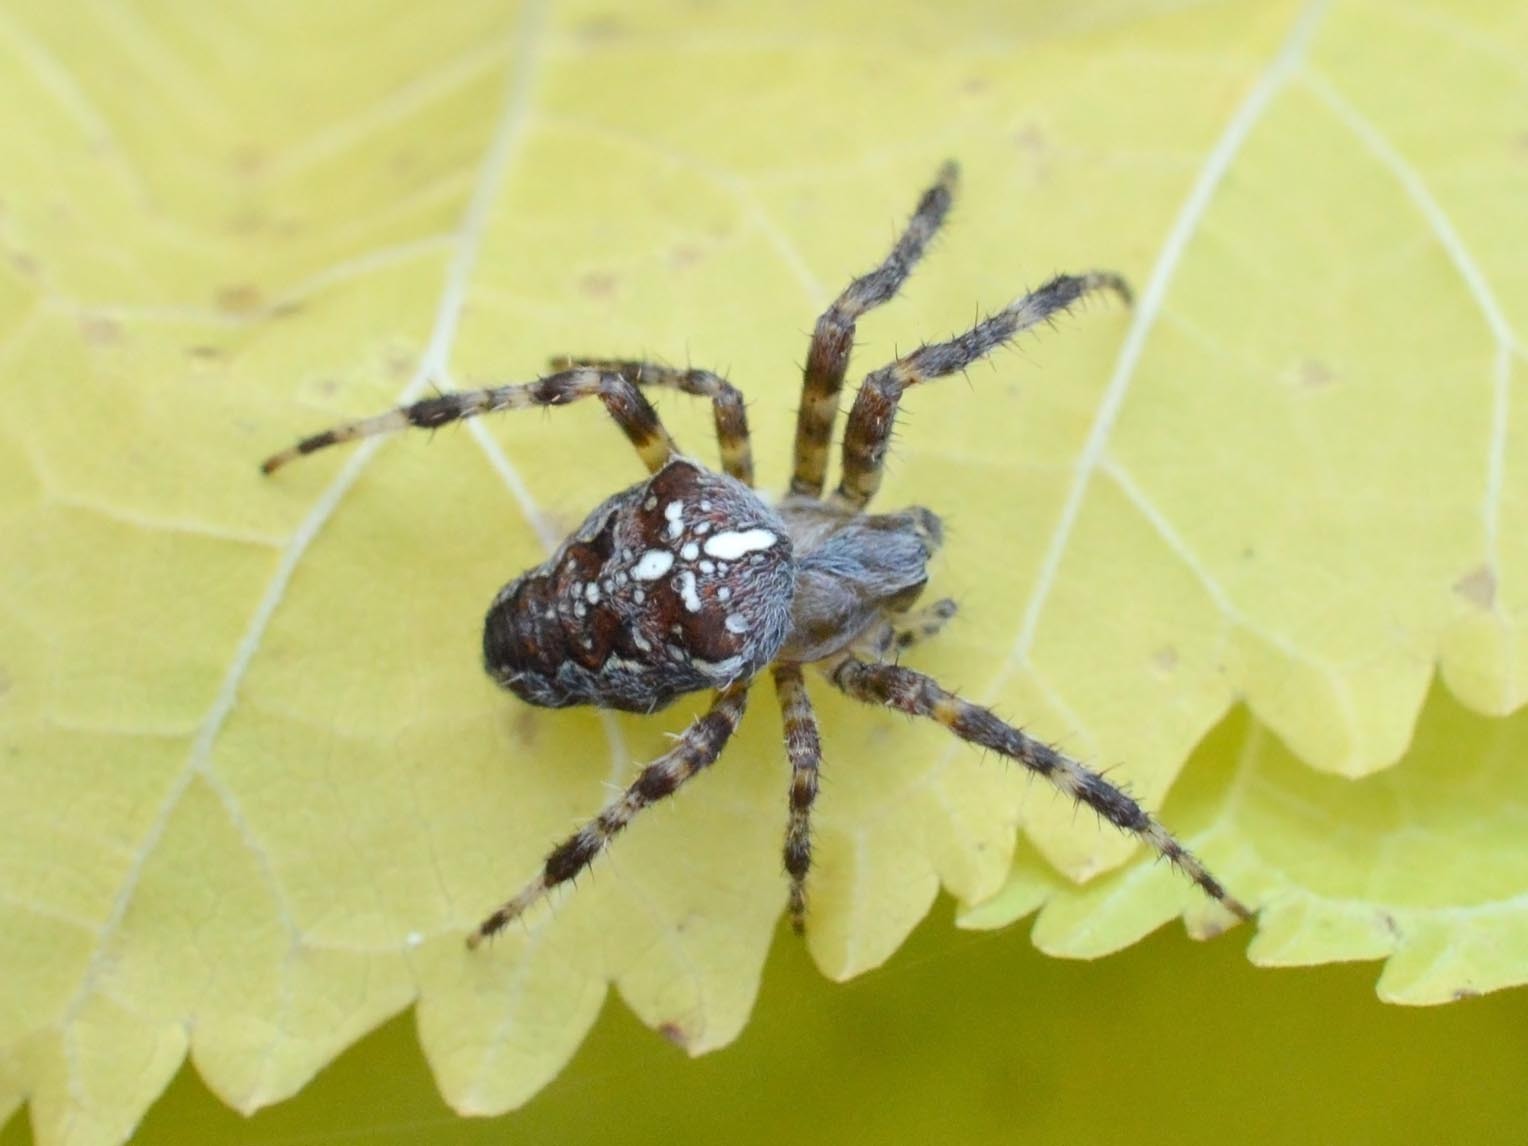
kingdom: Animalia
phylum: Arthropoda
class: Arachnida
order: Araneae
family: Araneidae
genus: Araneus
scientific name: Araneus diadematus
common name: Cross orbweaver
